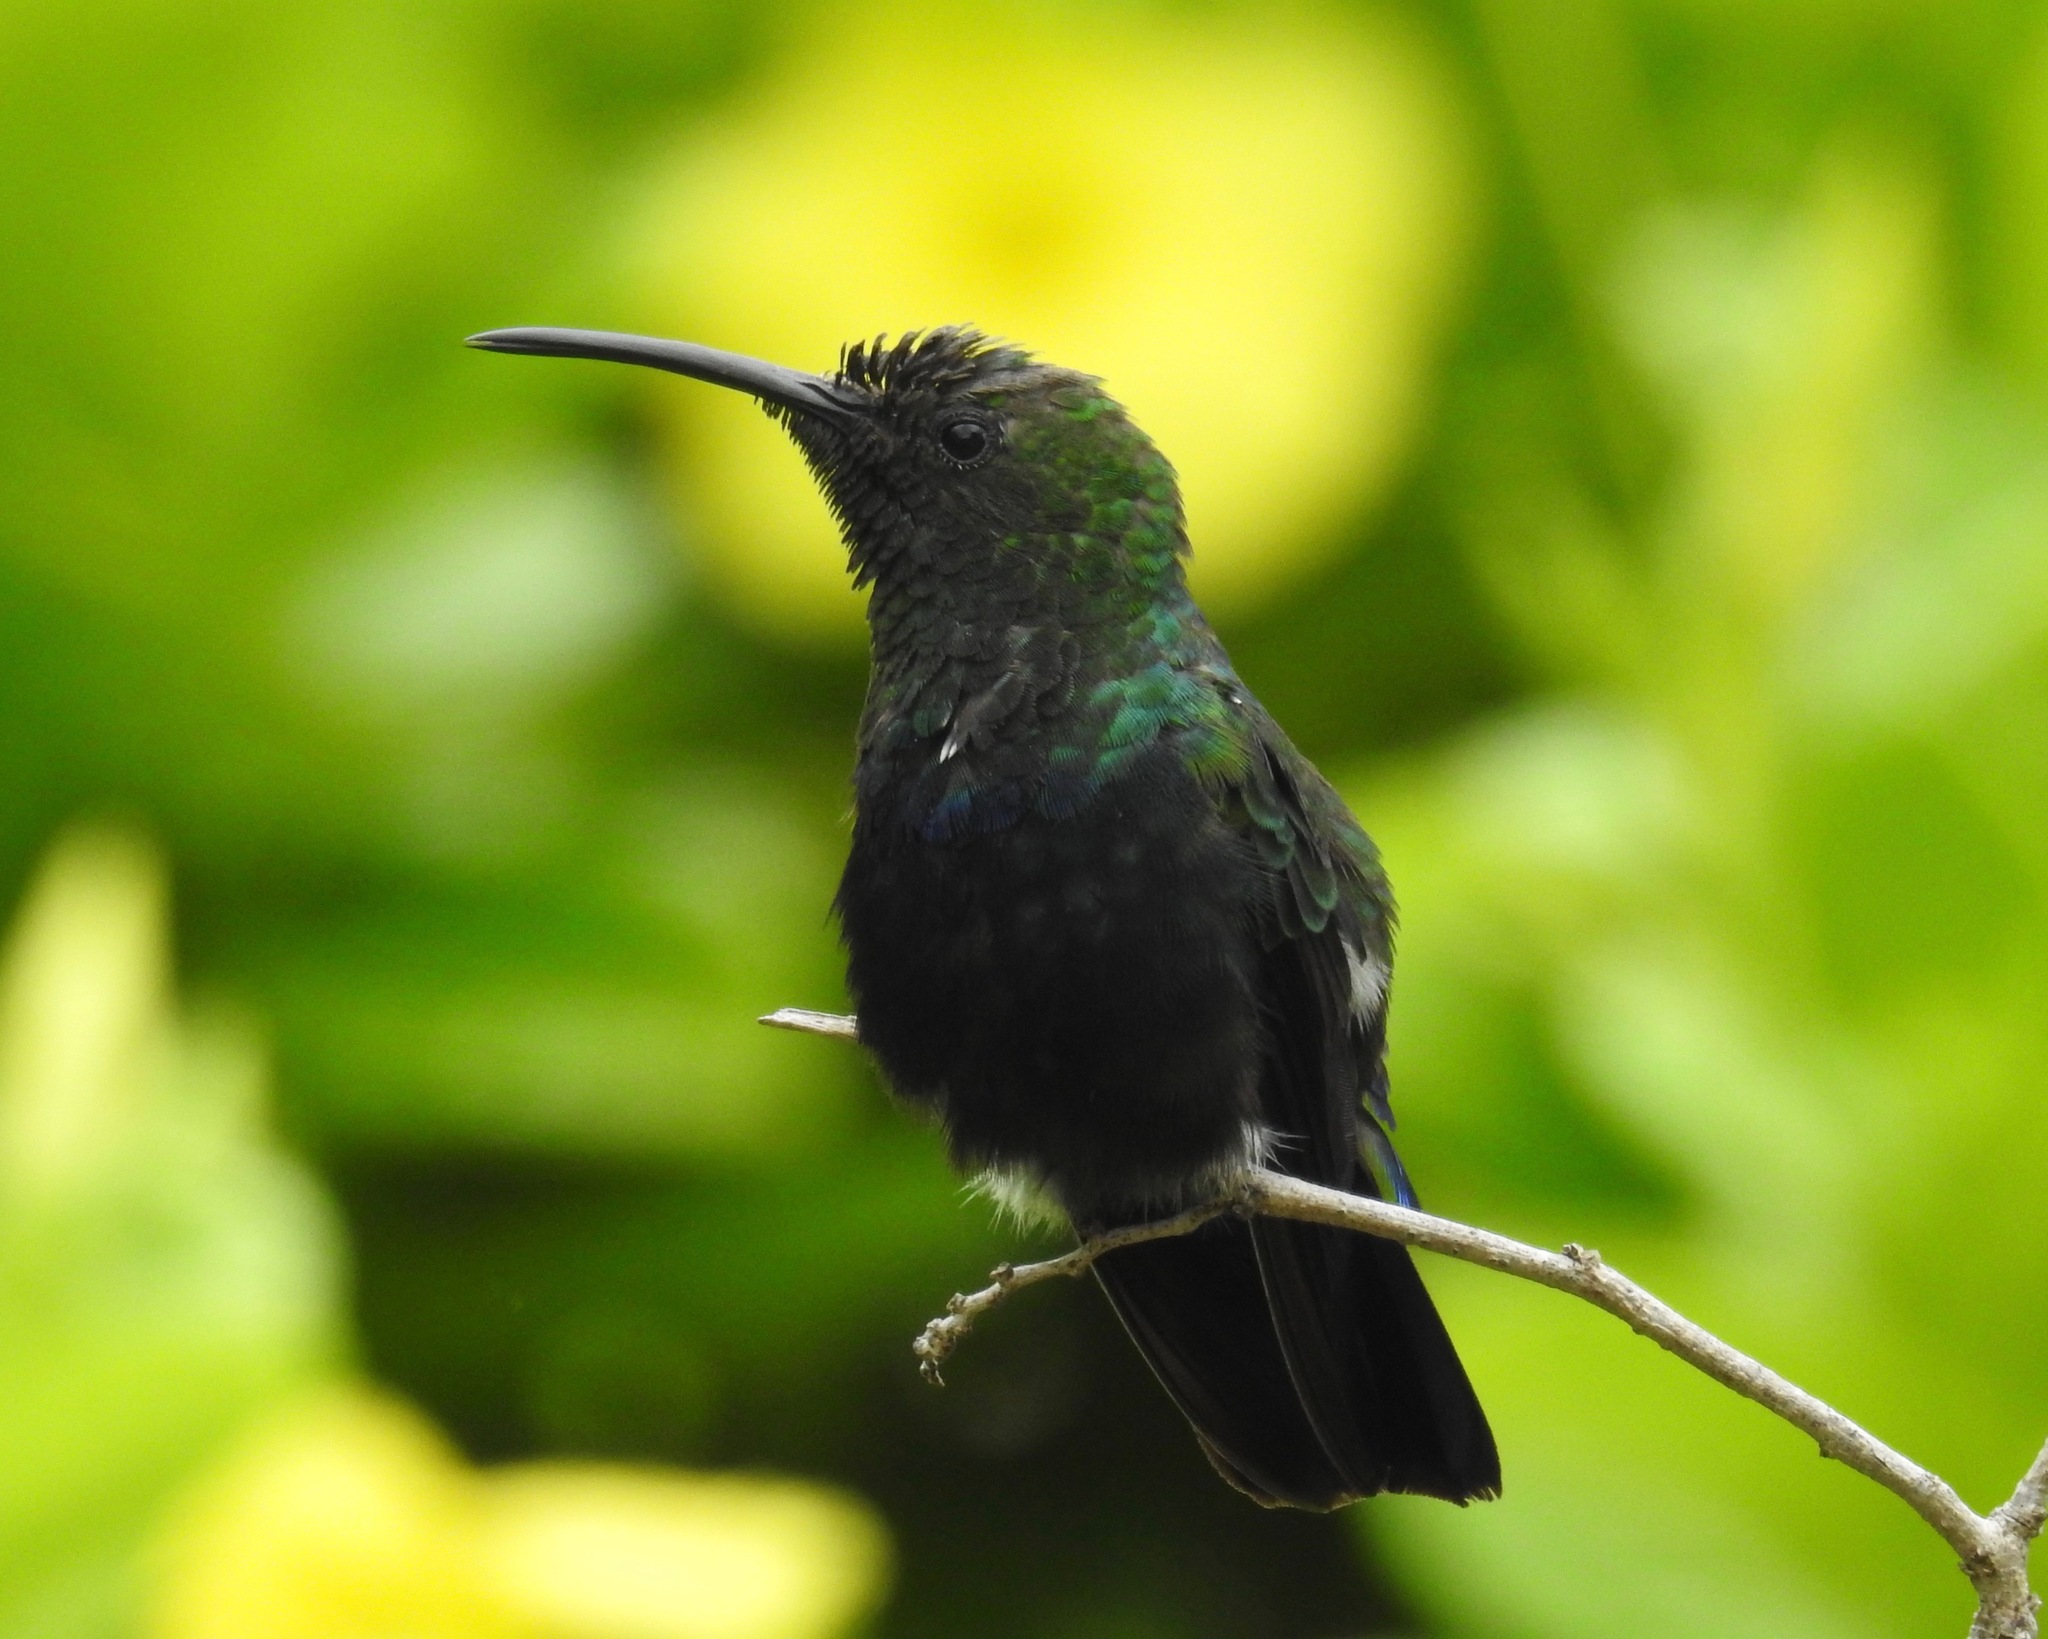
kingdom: Animalia
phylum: Chordata
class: Aves
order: Apodiformes
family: Trochilidae
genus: Eulampis
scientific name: Eulampis holosericeus
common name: Green-throated carib
